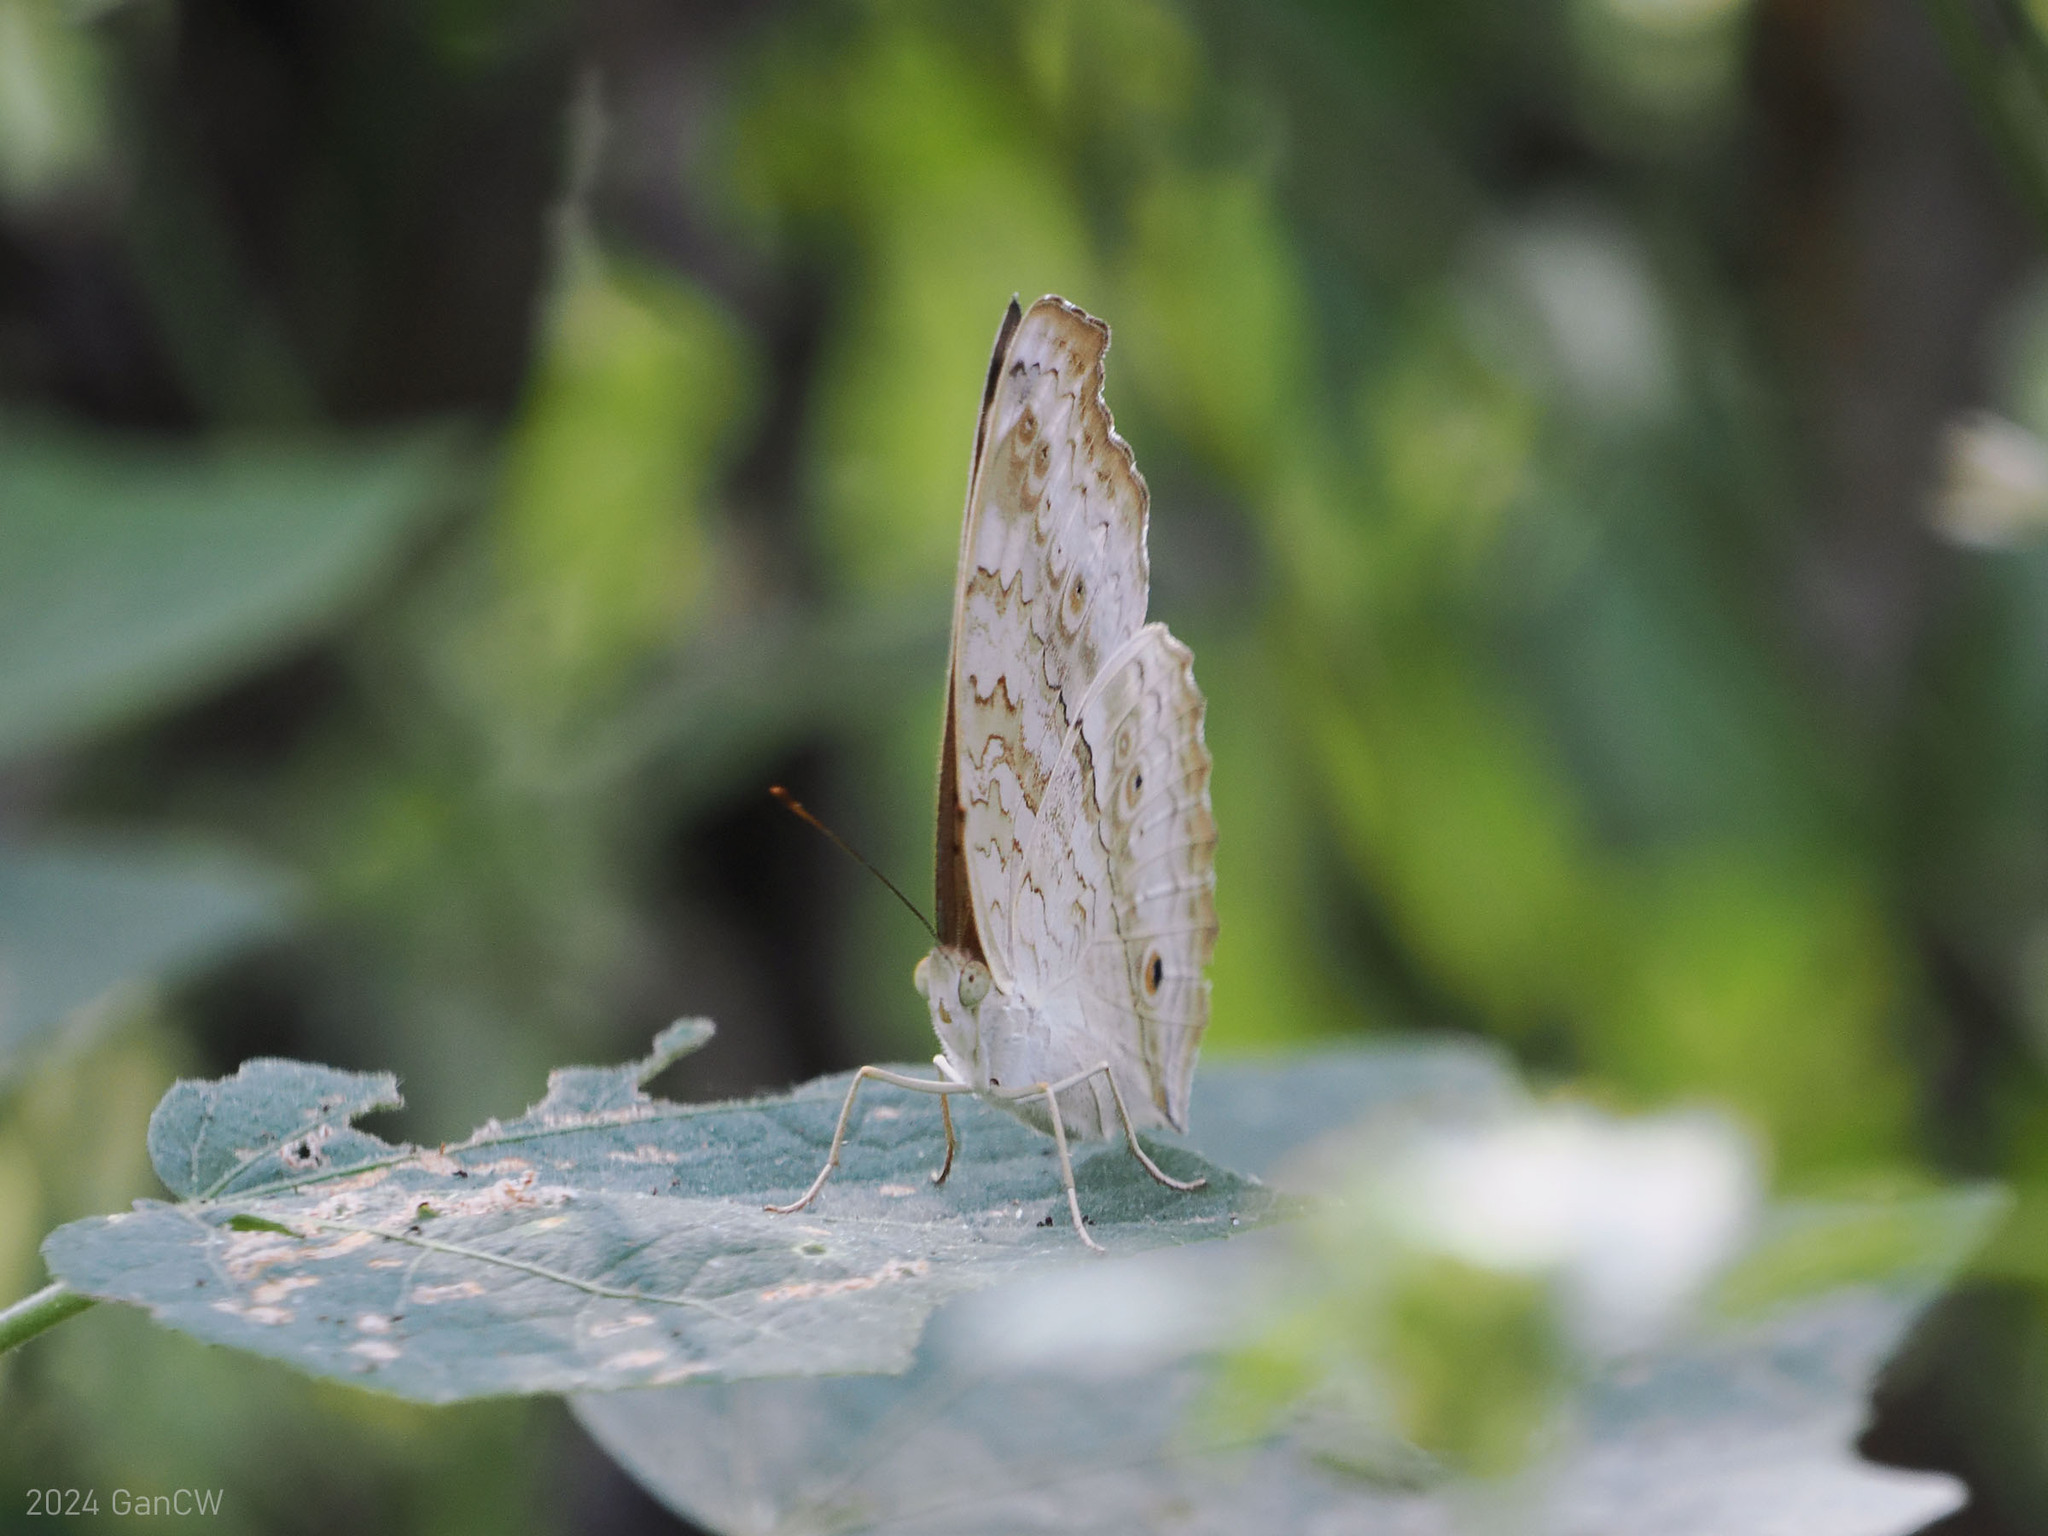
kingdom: Animalia
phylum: Arthropoda
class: Insecta
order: Lepidoptera
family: Nymphalidae
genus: Junonia
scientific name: Junonia atlites
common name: Grey pansy
